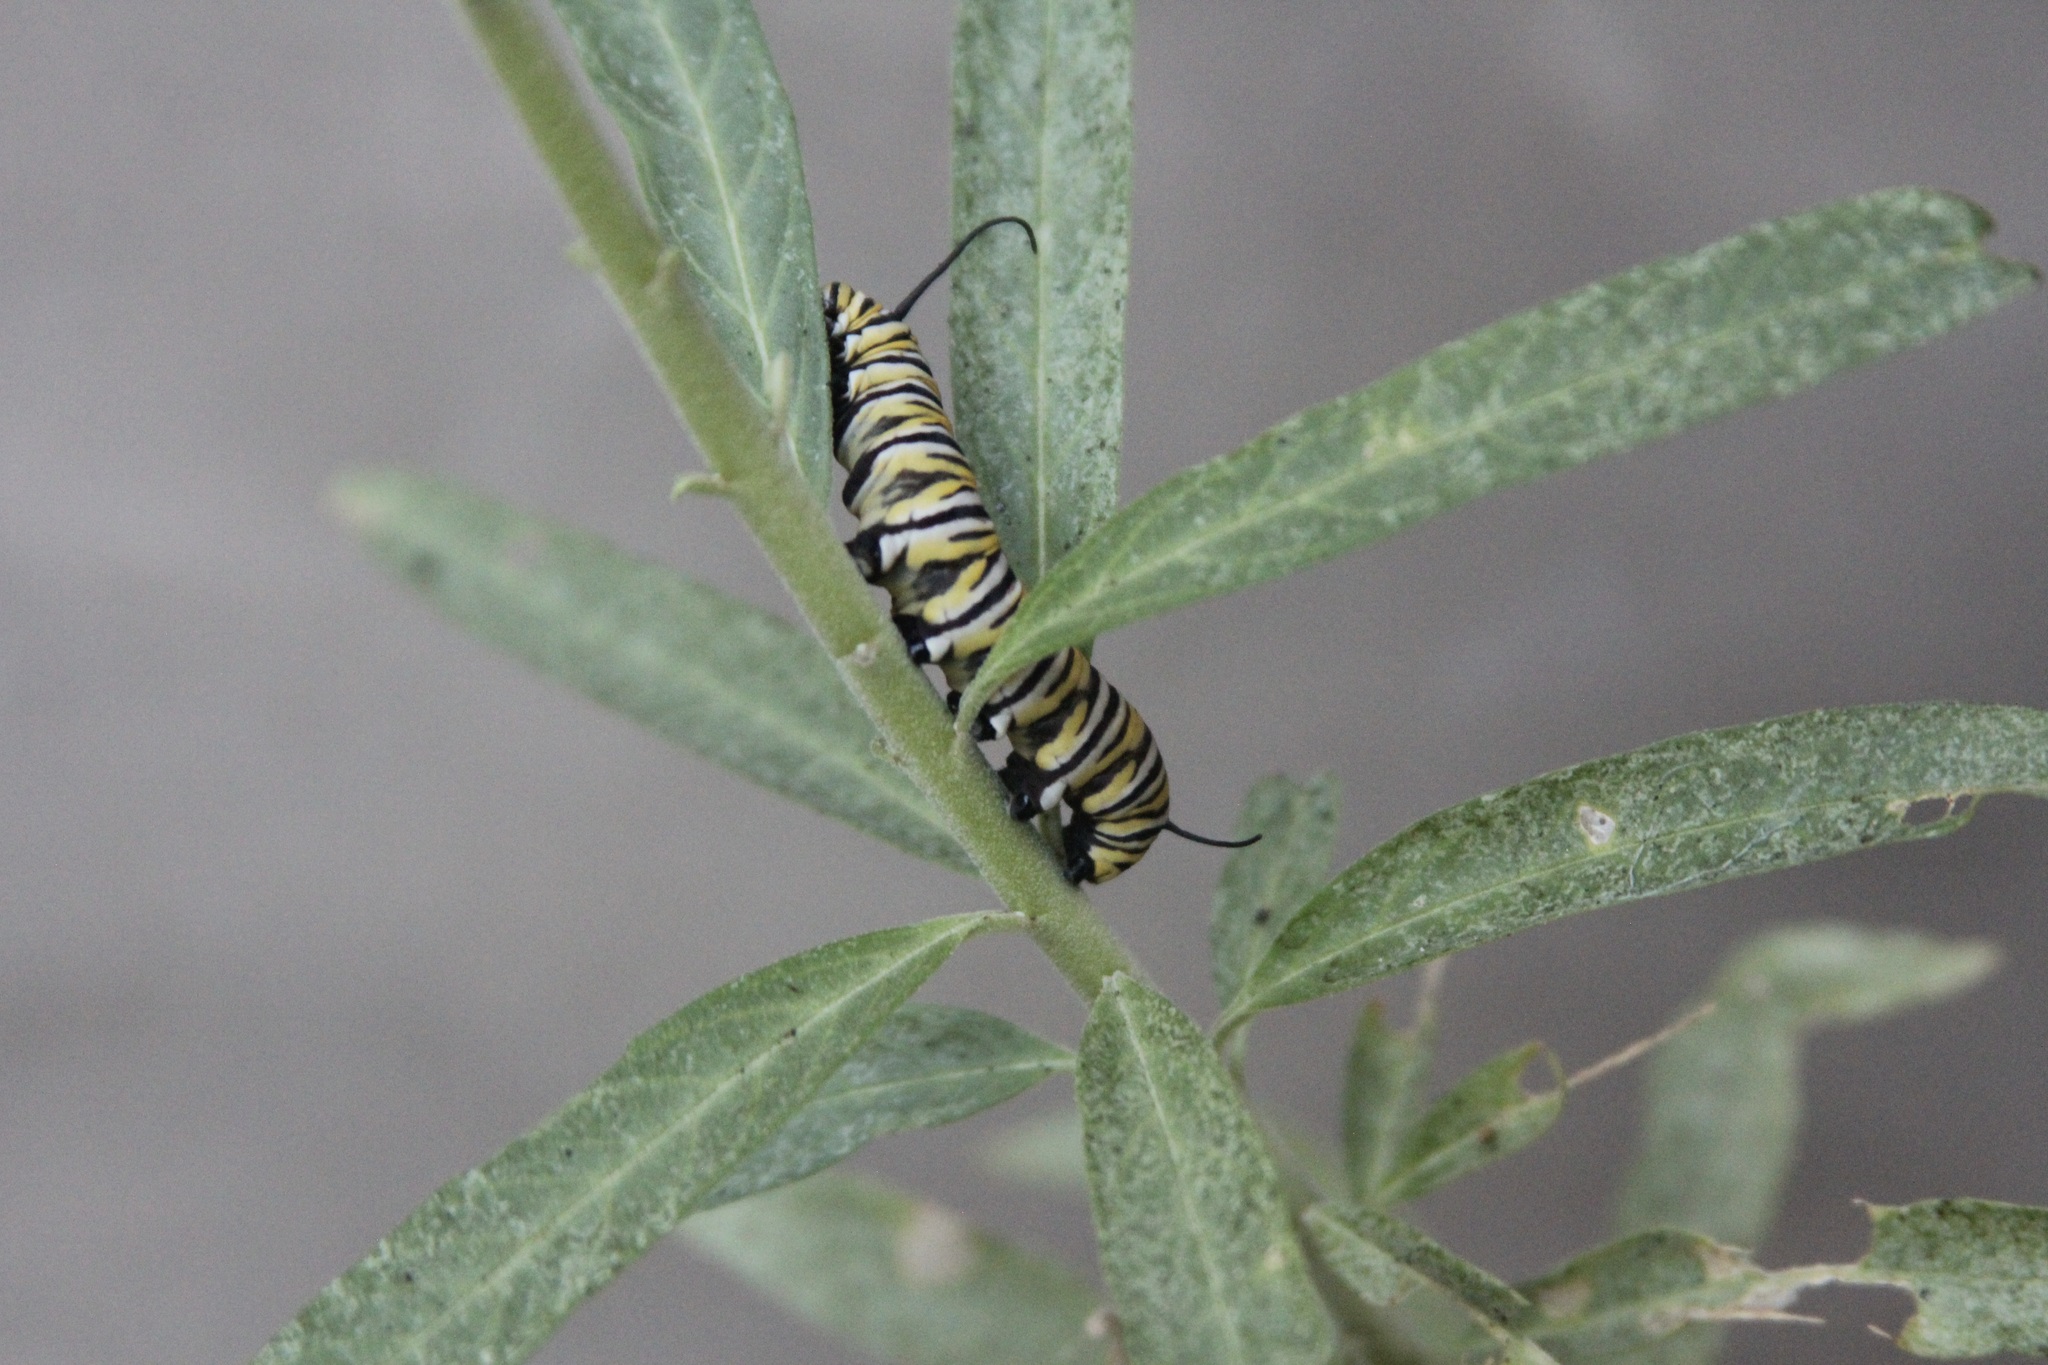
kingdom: Animalia
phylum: Arthropoda
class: Insecta
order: Lepidoptera
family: Nymphalidae
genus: Danaus
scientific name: Danaus plexippus
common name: Monarch
